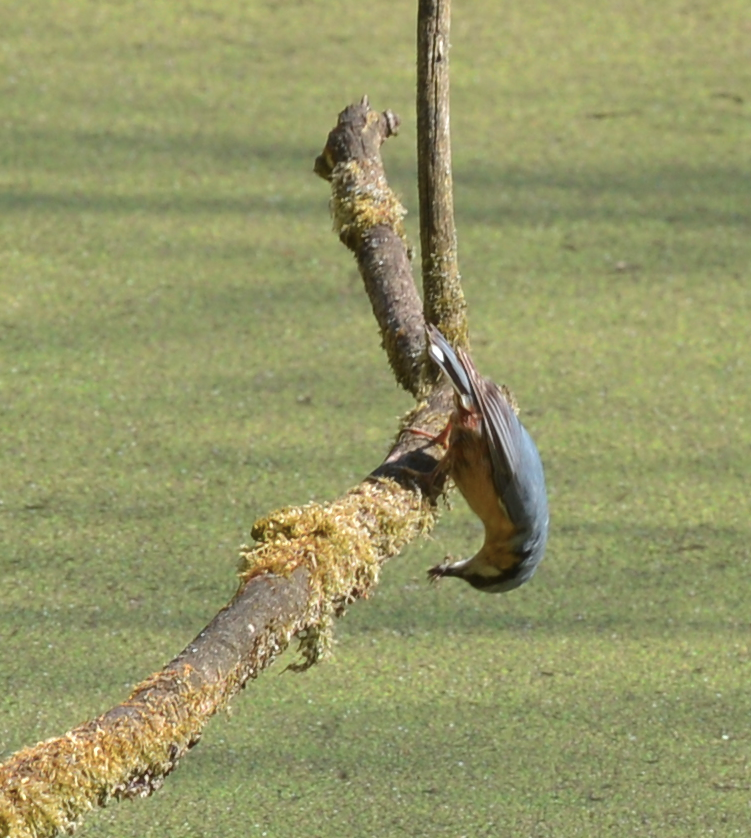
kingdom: Animalia
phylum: Chordata
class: Aves
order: Passeriformes
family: Sittidae
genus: Sitta
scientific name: Sitta europaea
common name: Eurasian nuthatch
